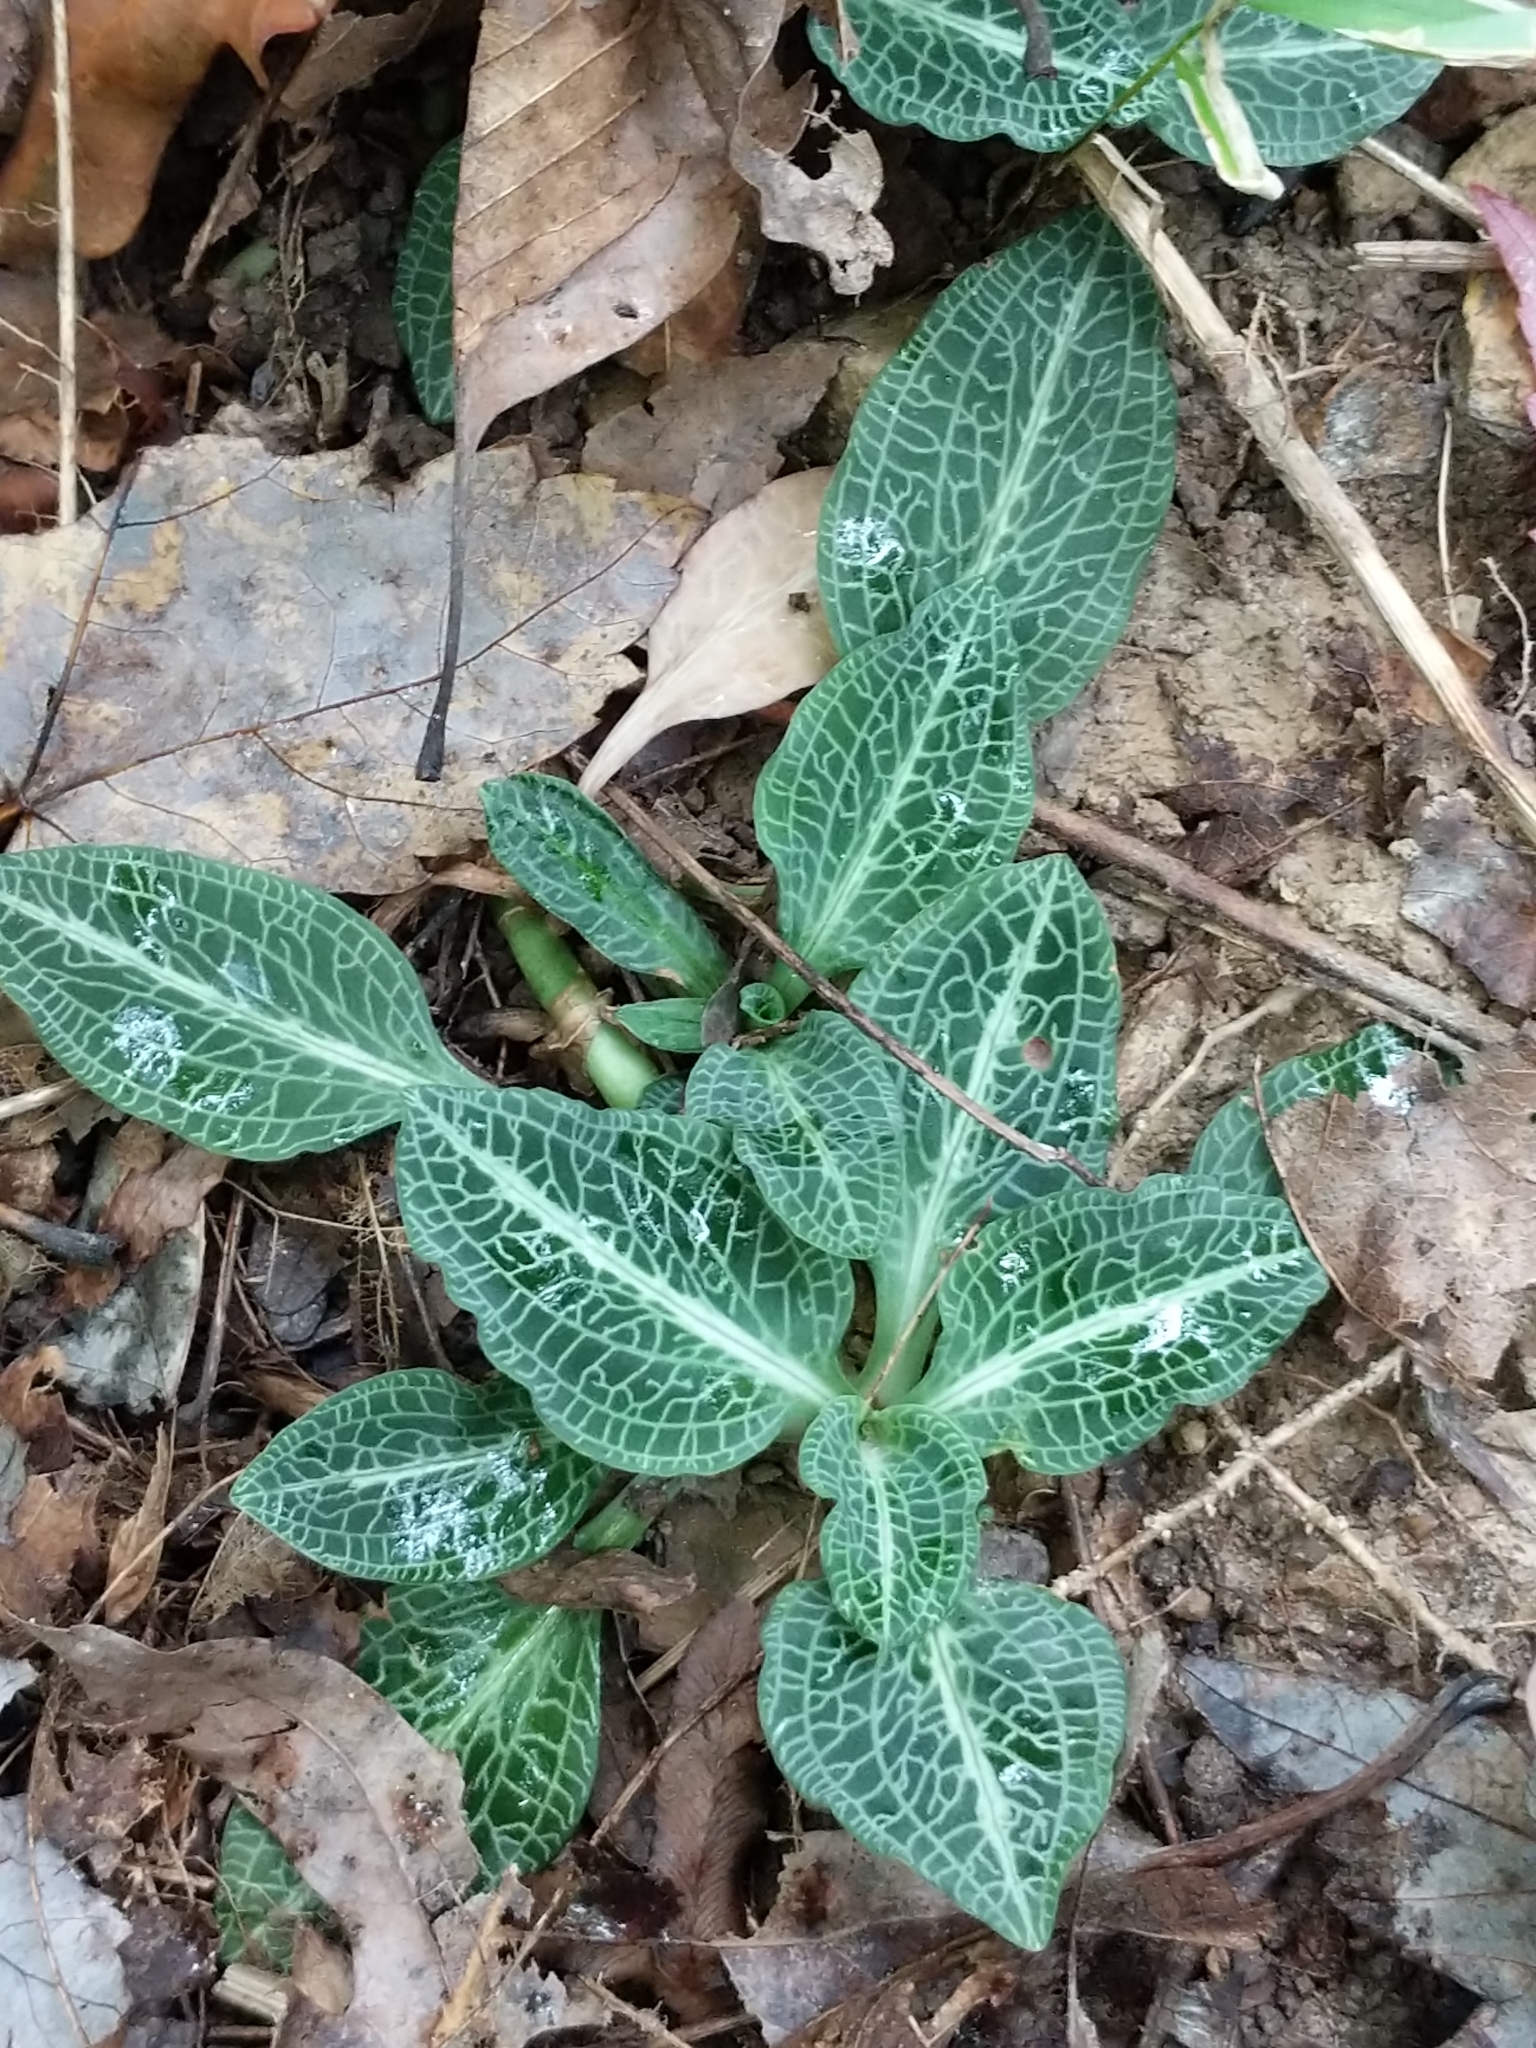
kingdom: Plantae
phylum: Tracheophyta
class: Liliopsida
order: Asparagales
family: Orchidaceae
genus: Goodyera
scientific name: Goodyera pubescens
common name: Downy rattlesnake-plantain
